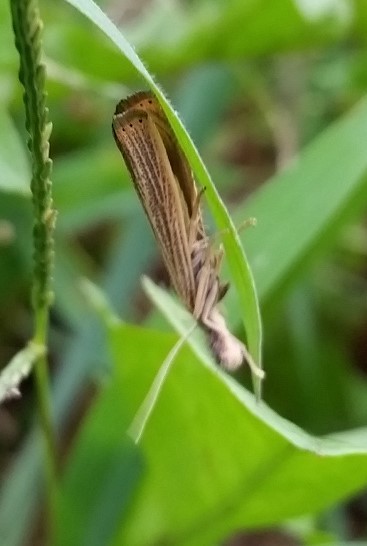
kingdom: Animalia
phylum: Arthropoda
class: Insecta
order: Lepidoptera
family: Crambidae
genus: Agriphila
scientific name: Agriphila vulgivagellus
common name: Vagabond crambus moth
